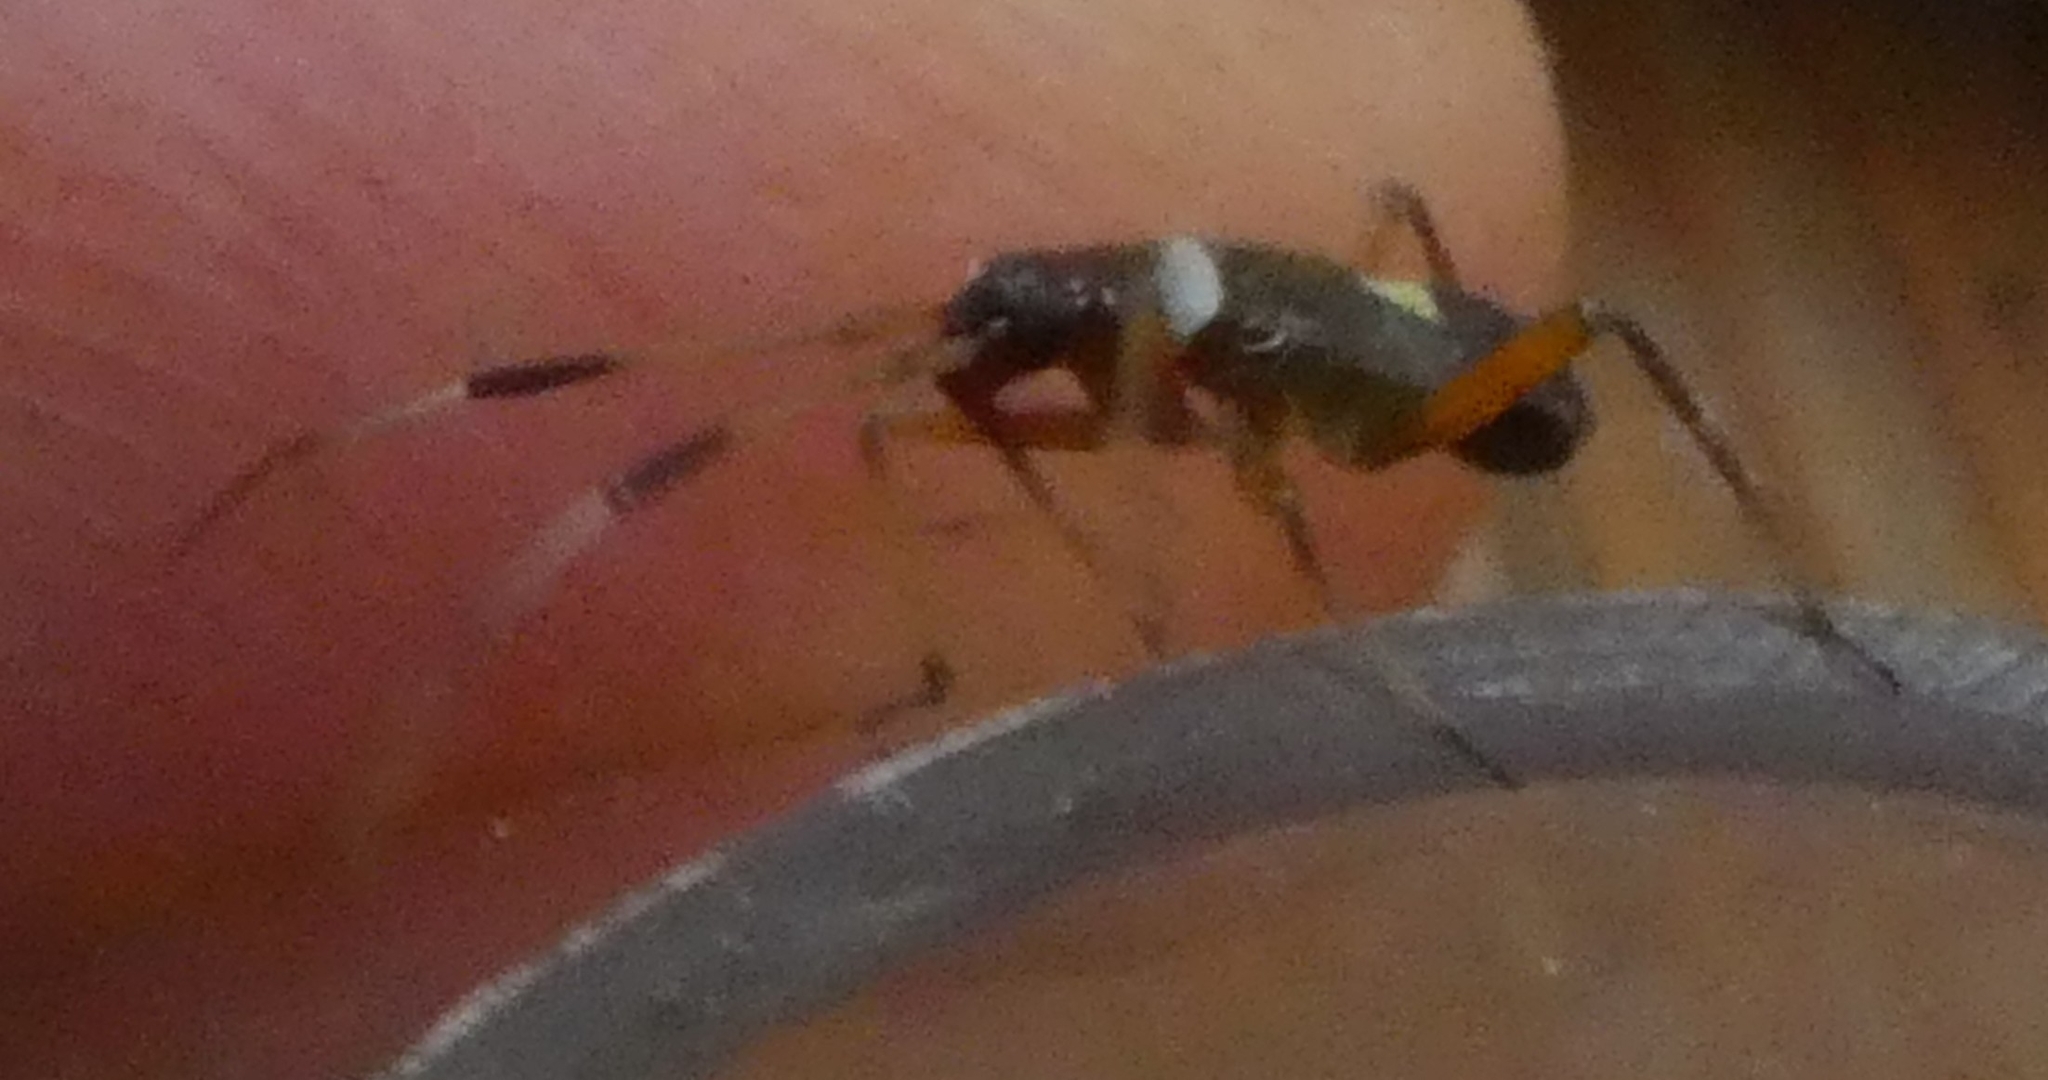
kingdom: Animalia
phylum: Arthropoda
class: Insecta
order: Hemiptera
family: Miridae
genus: Closterotomus
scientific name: Closterotomus biclavatus
